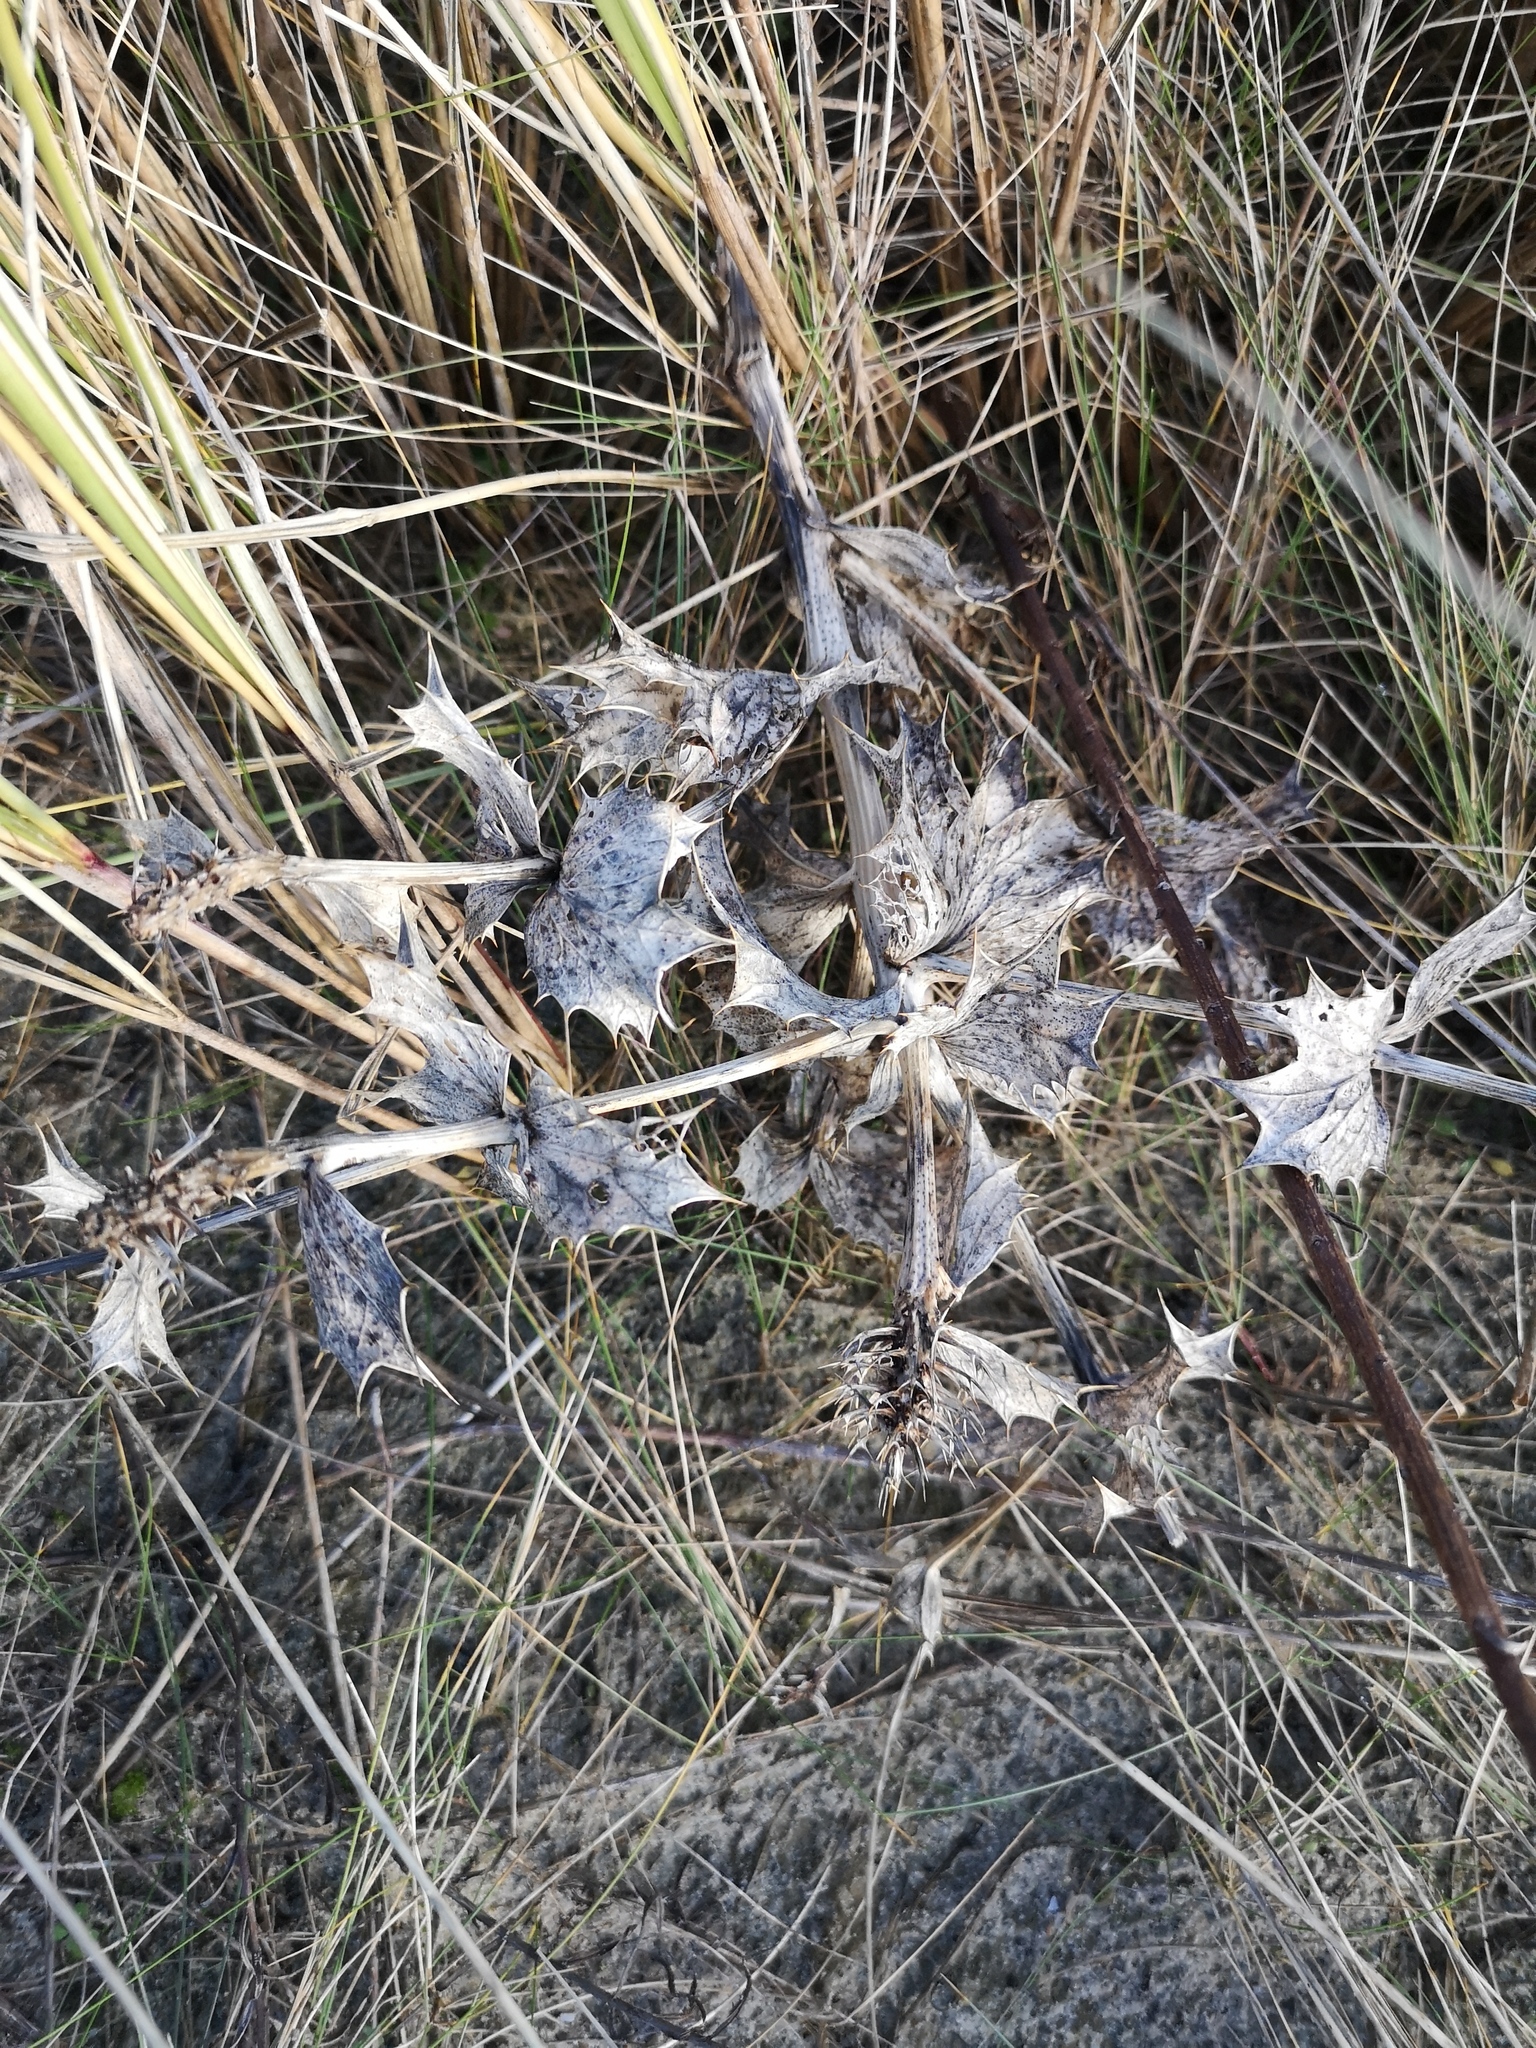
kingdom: Plantae
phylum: Tracheophyta
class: Magnoliopsida
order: Apiales
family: Apiaceae
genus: Eryngium
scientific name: Eryngium maritimum
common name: Sea-holly
